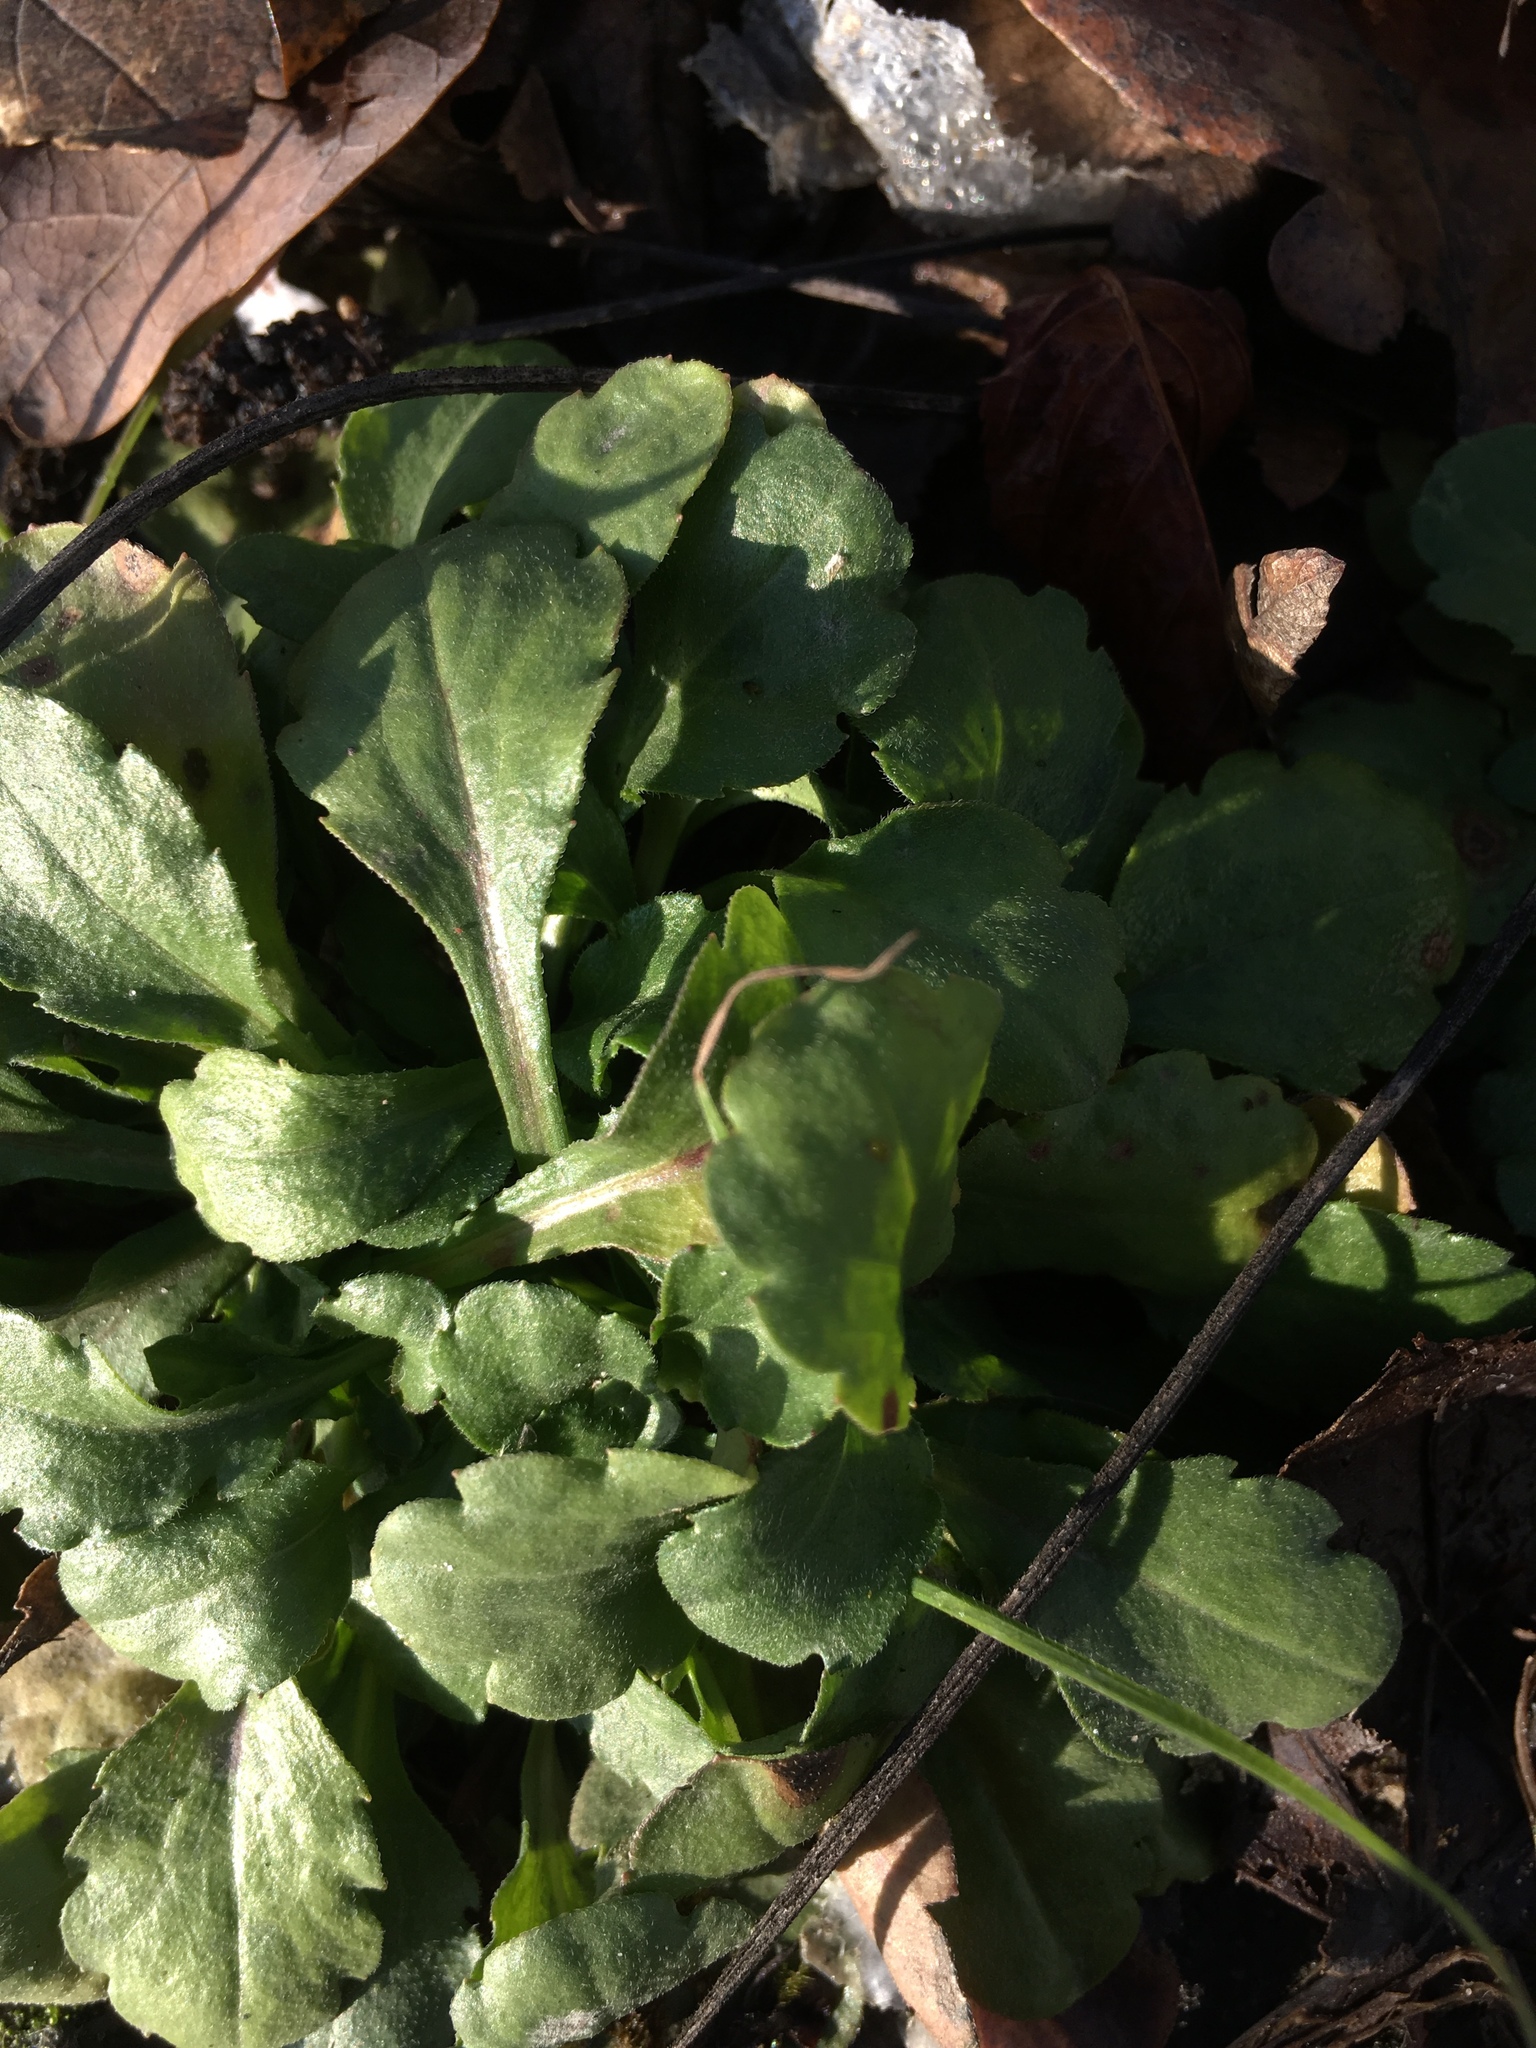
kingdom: Plantae
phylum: Tracheophyta
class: Magnoliopsida
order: Asterales
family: Asteraceae
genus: Bellis
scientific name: Bellis perennis
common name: Lawndaisy
